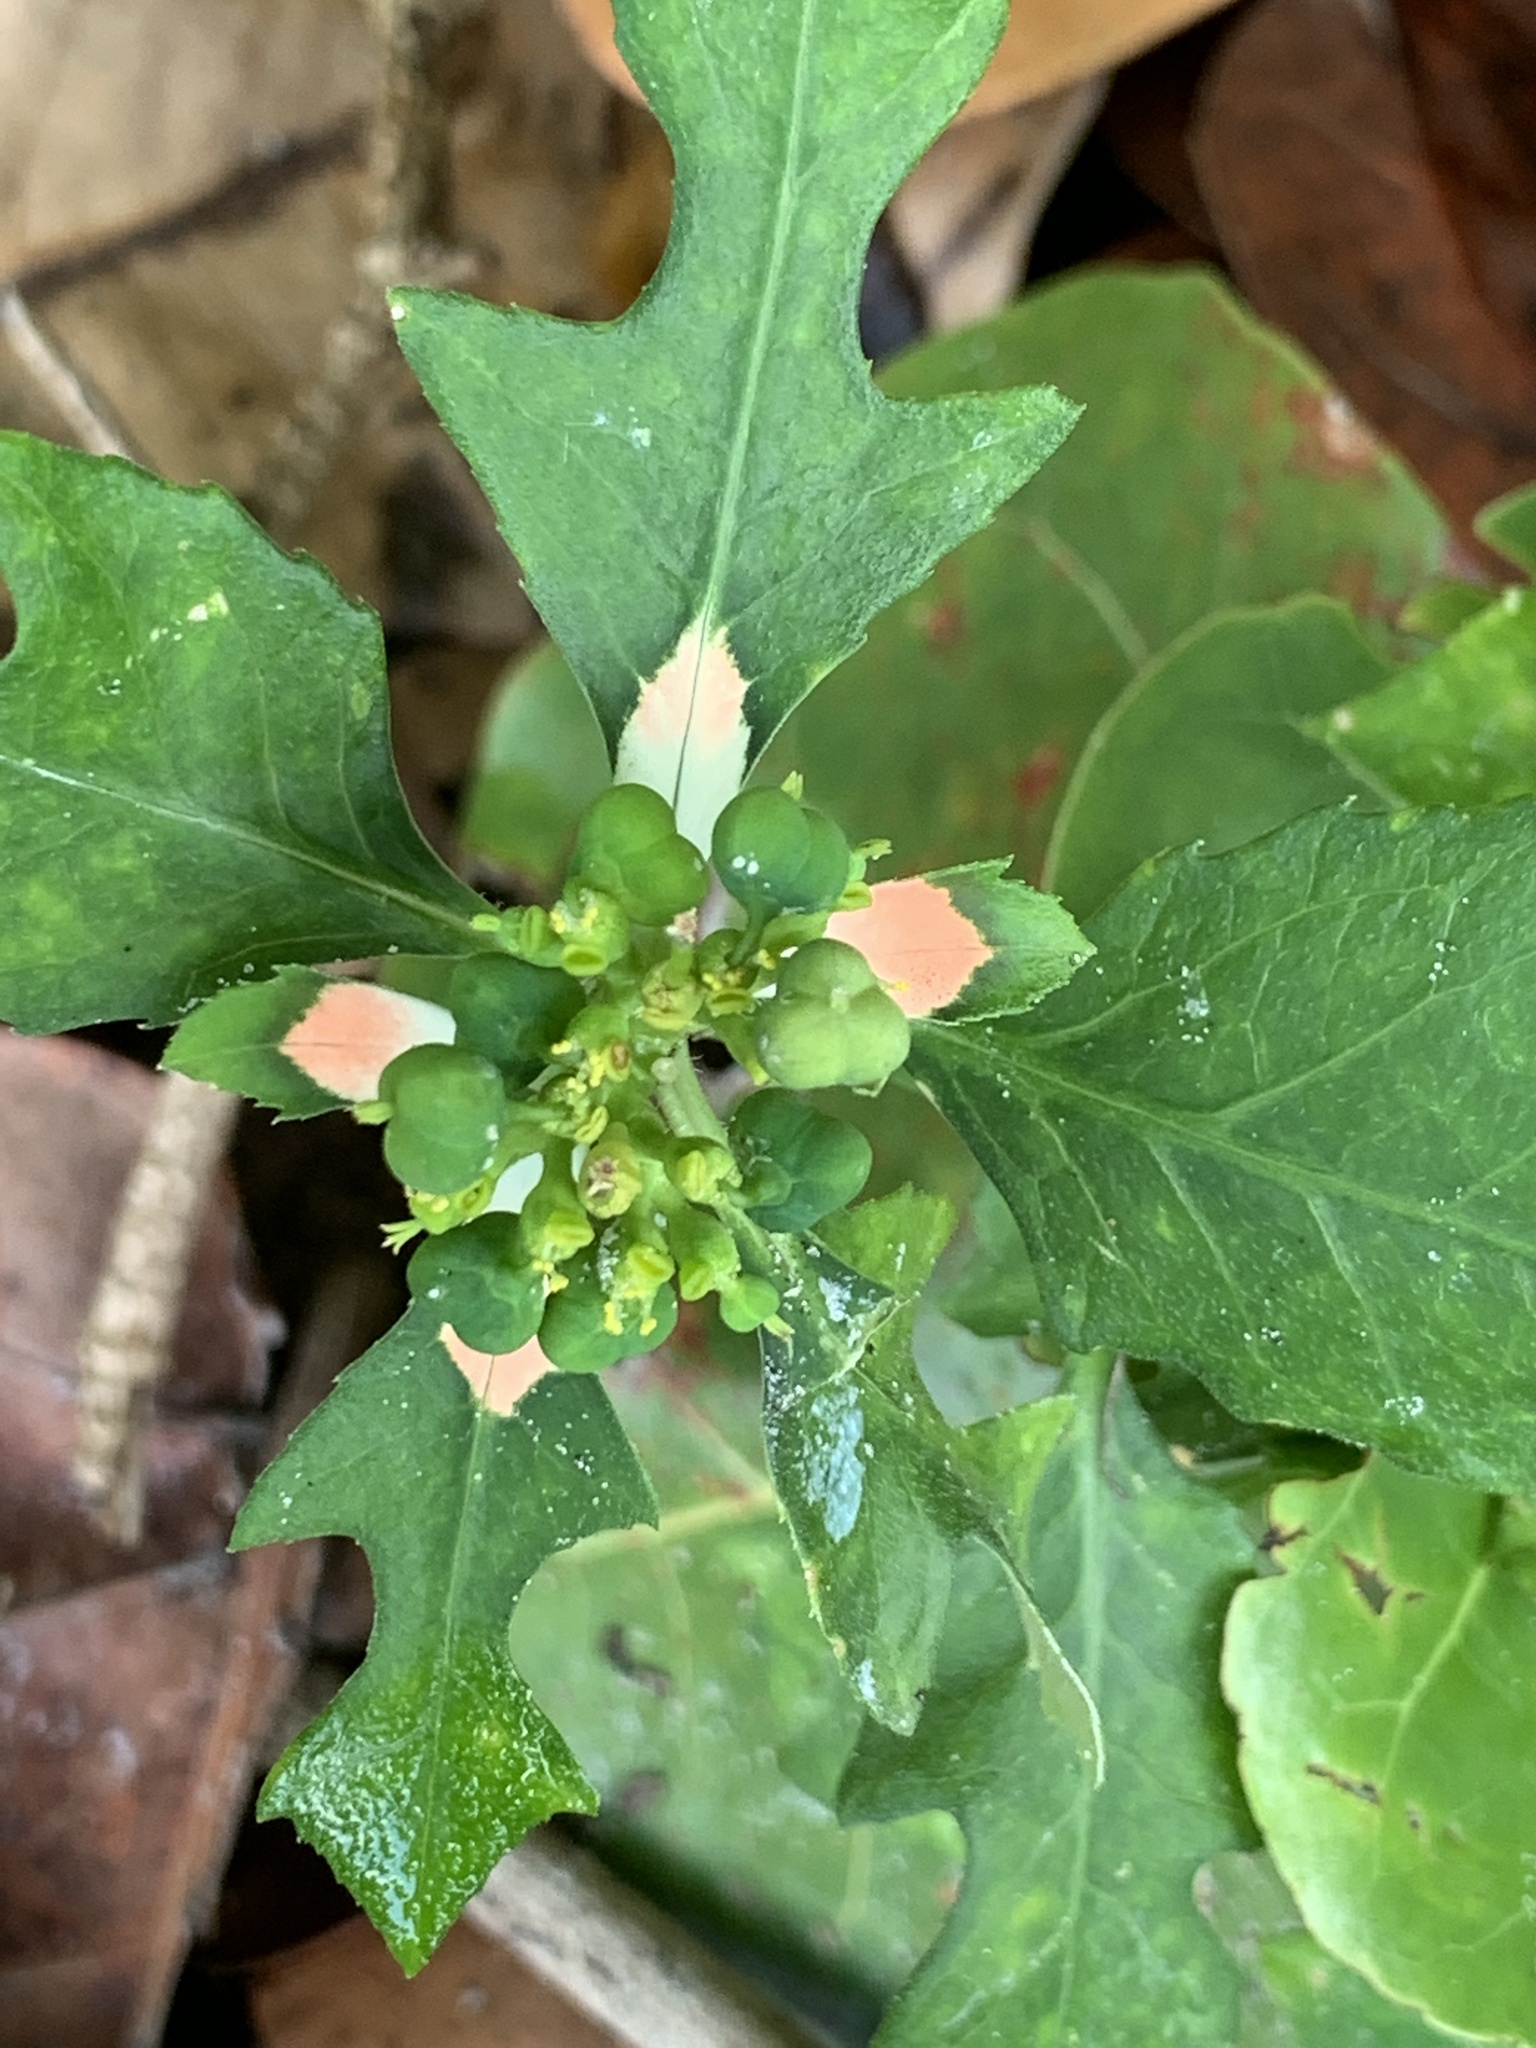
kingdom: Plantae
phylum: Tracheophyta
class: Magnoliopsida
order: Malpighiales
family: Euphorbiaceae
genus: Euphorbia
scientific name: Euphorbia heterophylla
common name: Mexican fireplant
